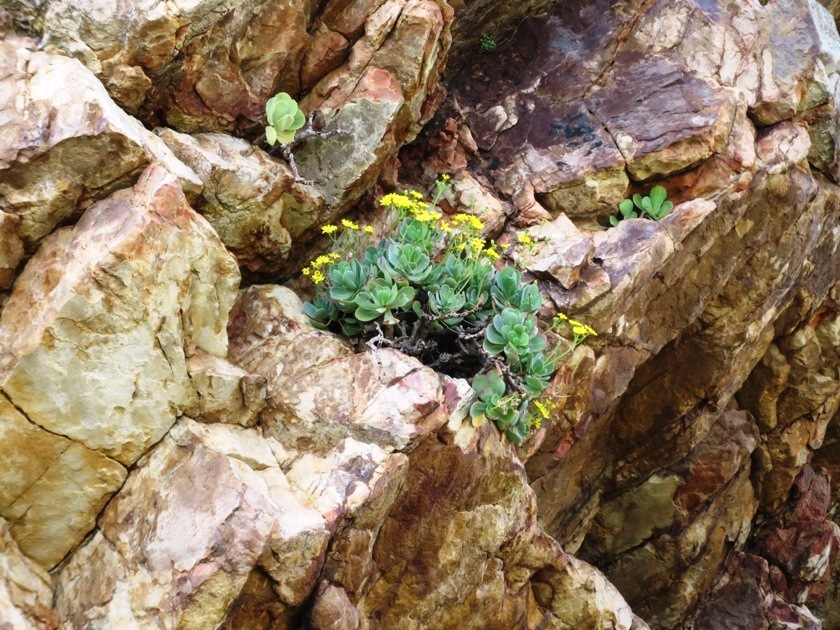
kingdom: Plantae
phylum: Tracheophyta
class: Magnoliopsida
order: Asterales
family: Asteraceae
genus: Othonna
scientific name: Othonna dentata
